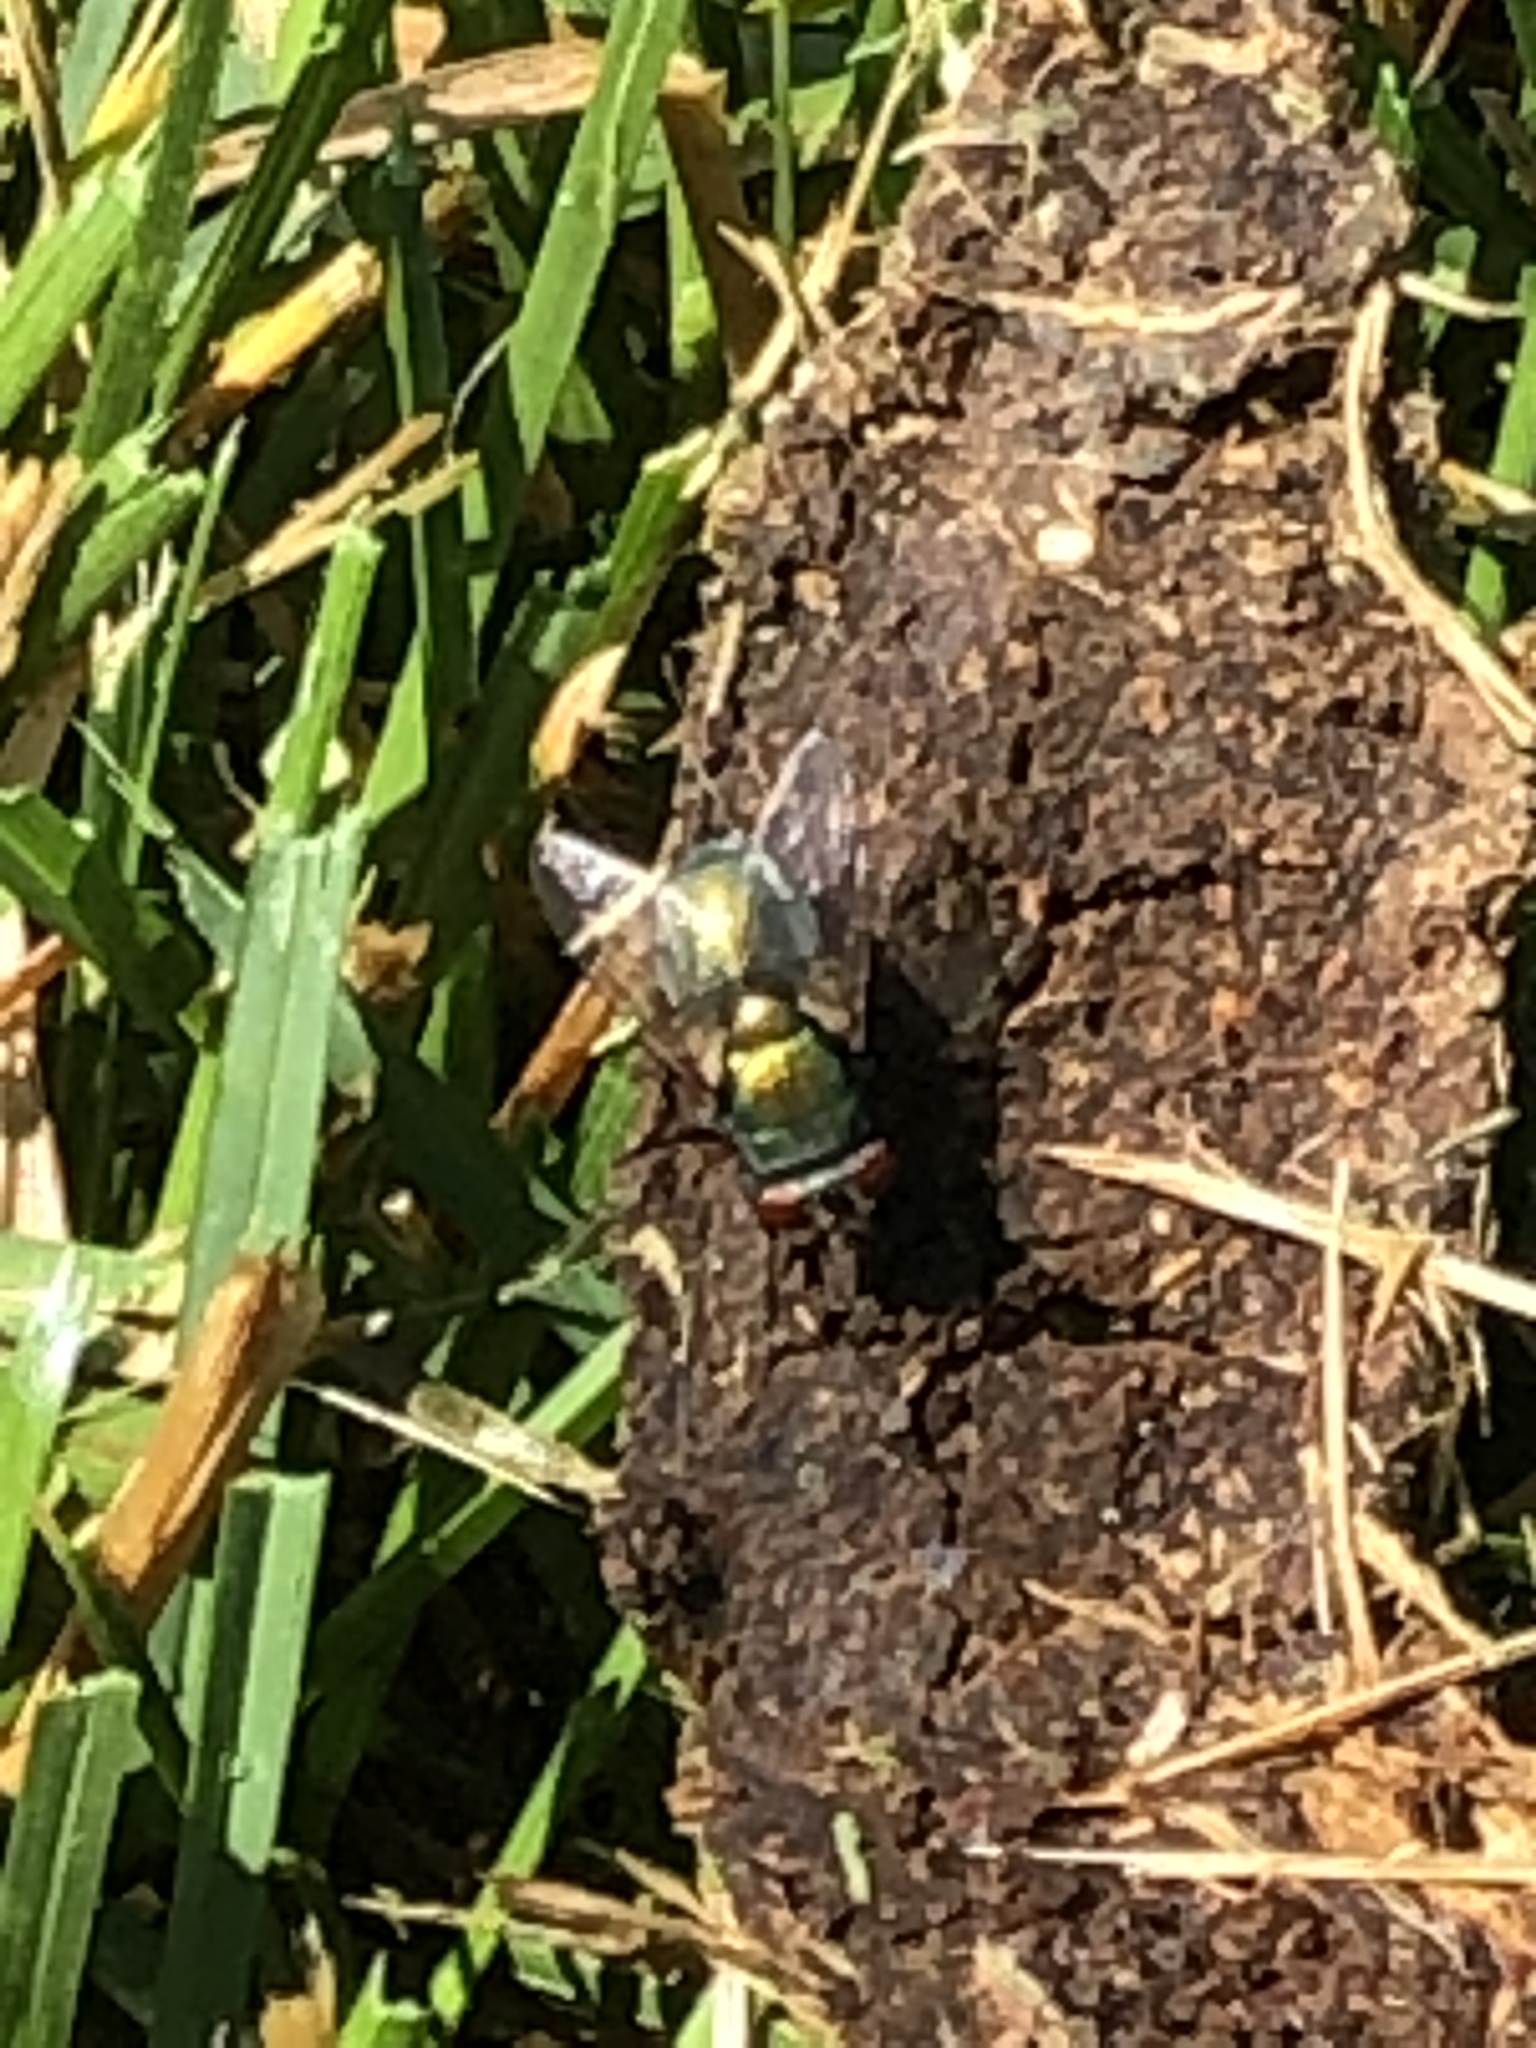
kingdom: Animalia
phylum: Arthropoda
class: Insecta
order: Diptera
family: Calliphoridae
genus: Lucilia
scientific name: Lucilia sericata
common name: Blow fly
